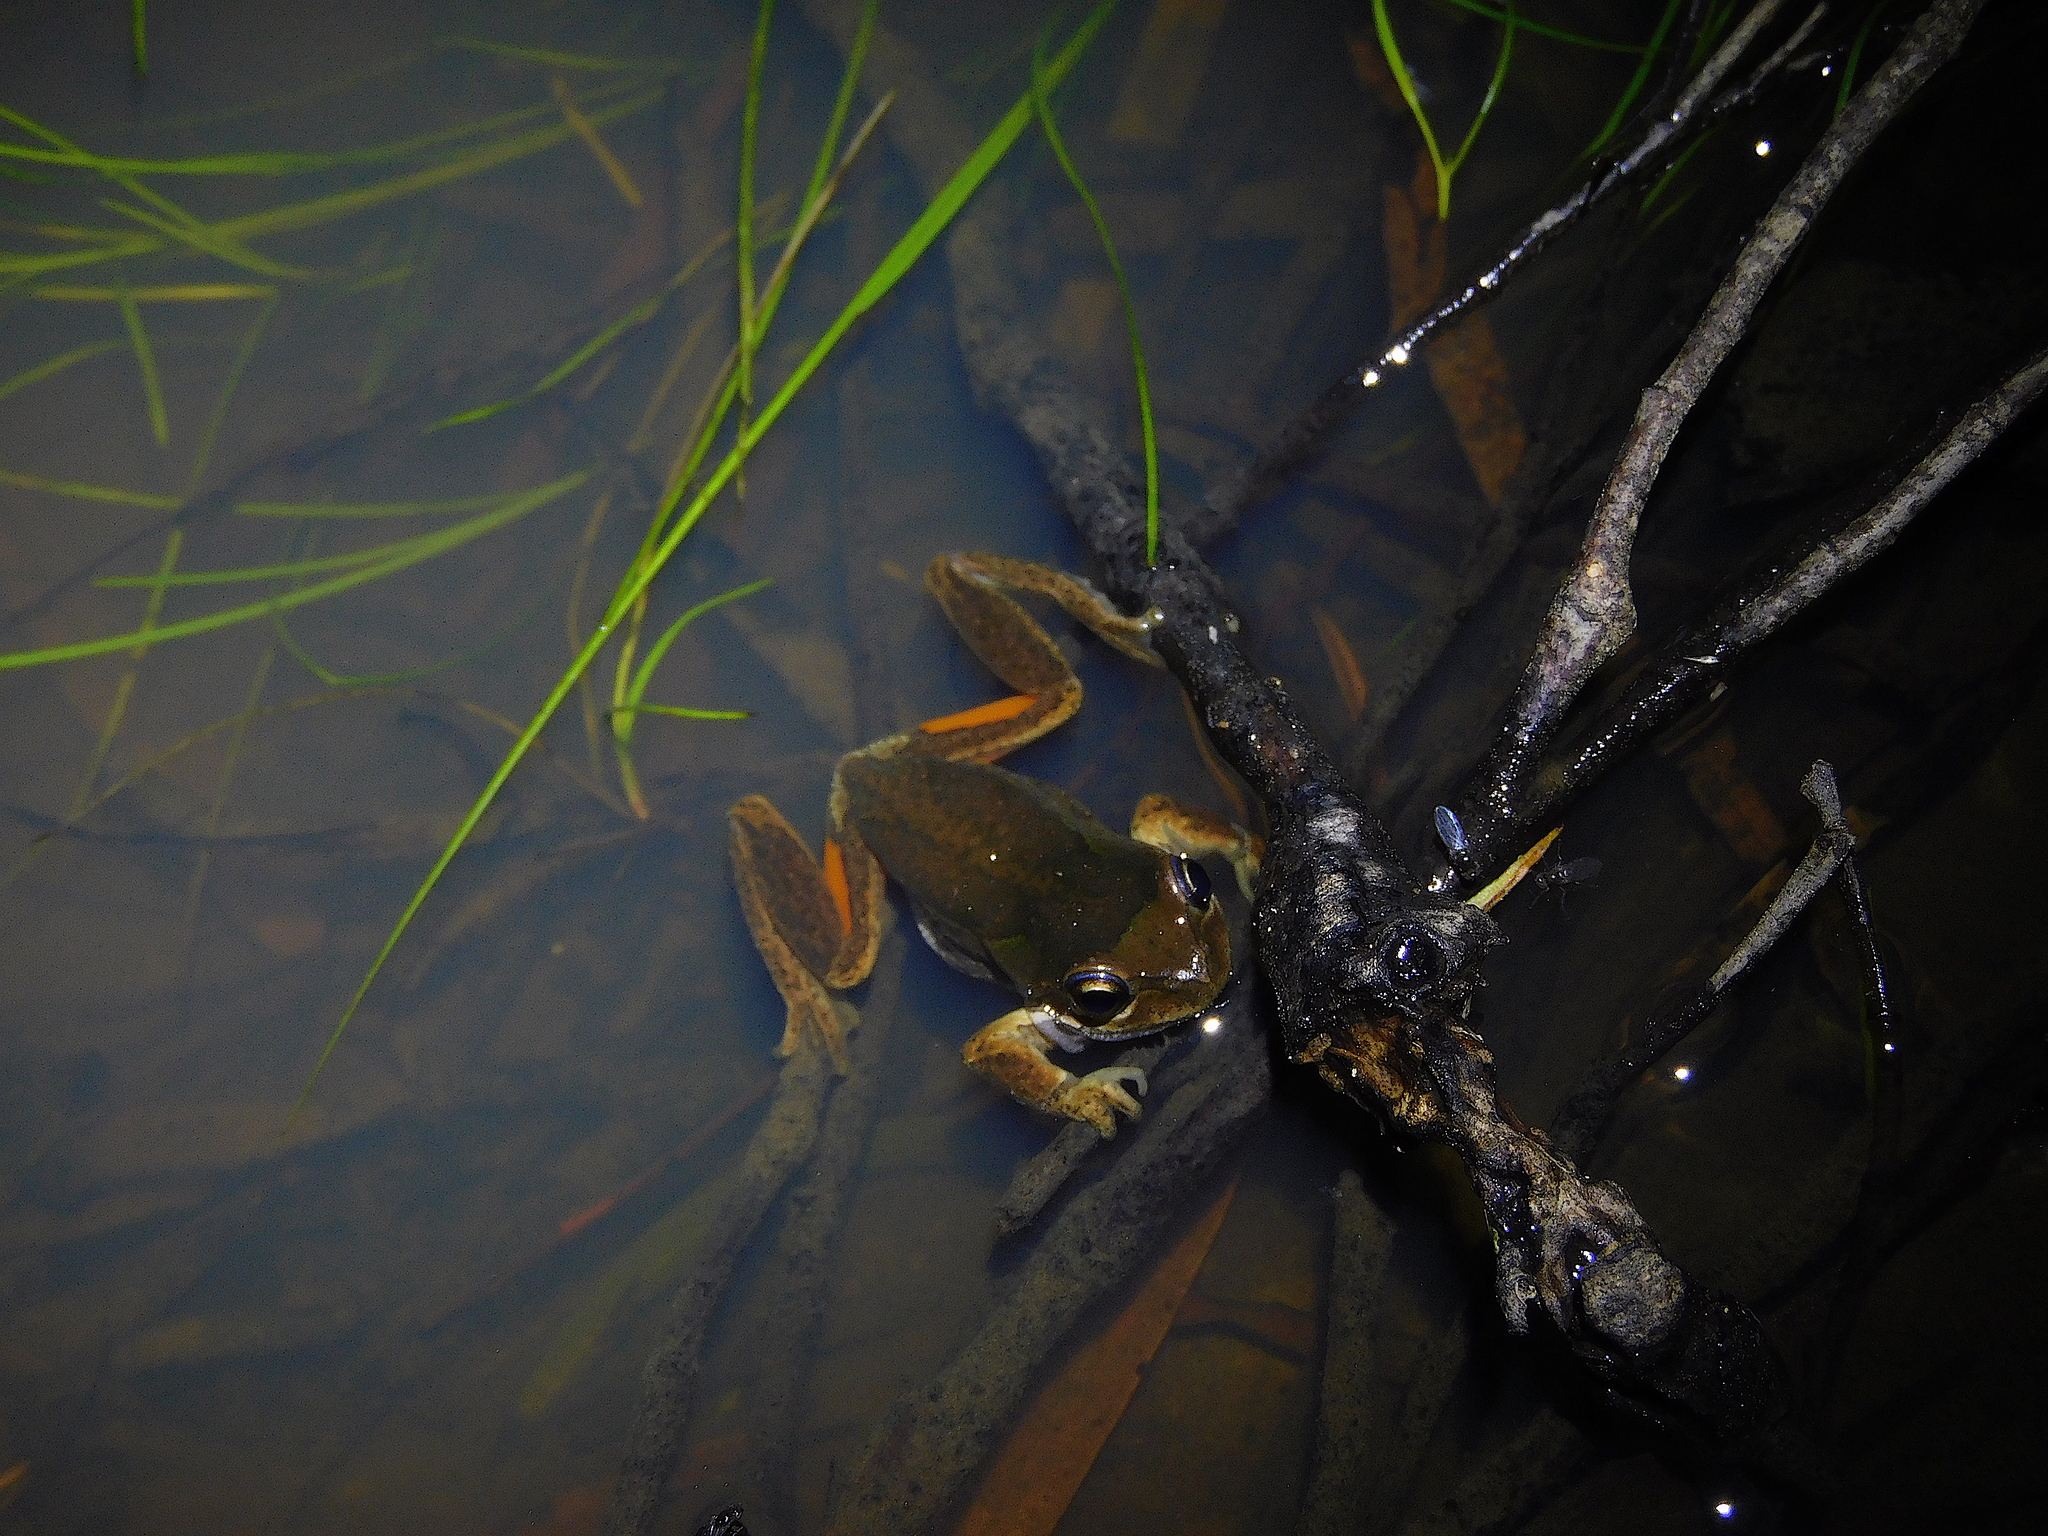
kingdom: Animalia
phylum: Chordata
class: Amphibia
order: Anura
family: Pelodryadidae
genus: Litoria
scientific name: Litoria ewingii
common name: Southern brown tree frog
